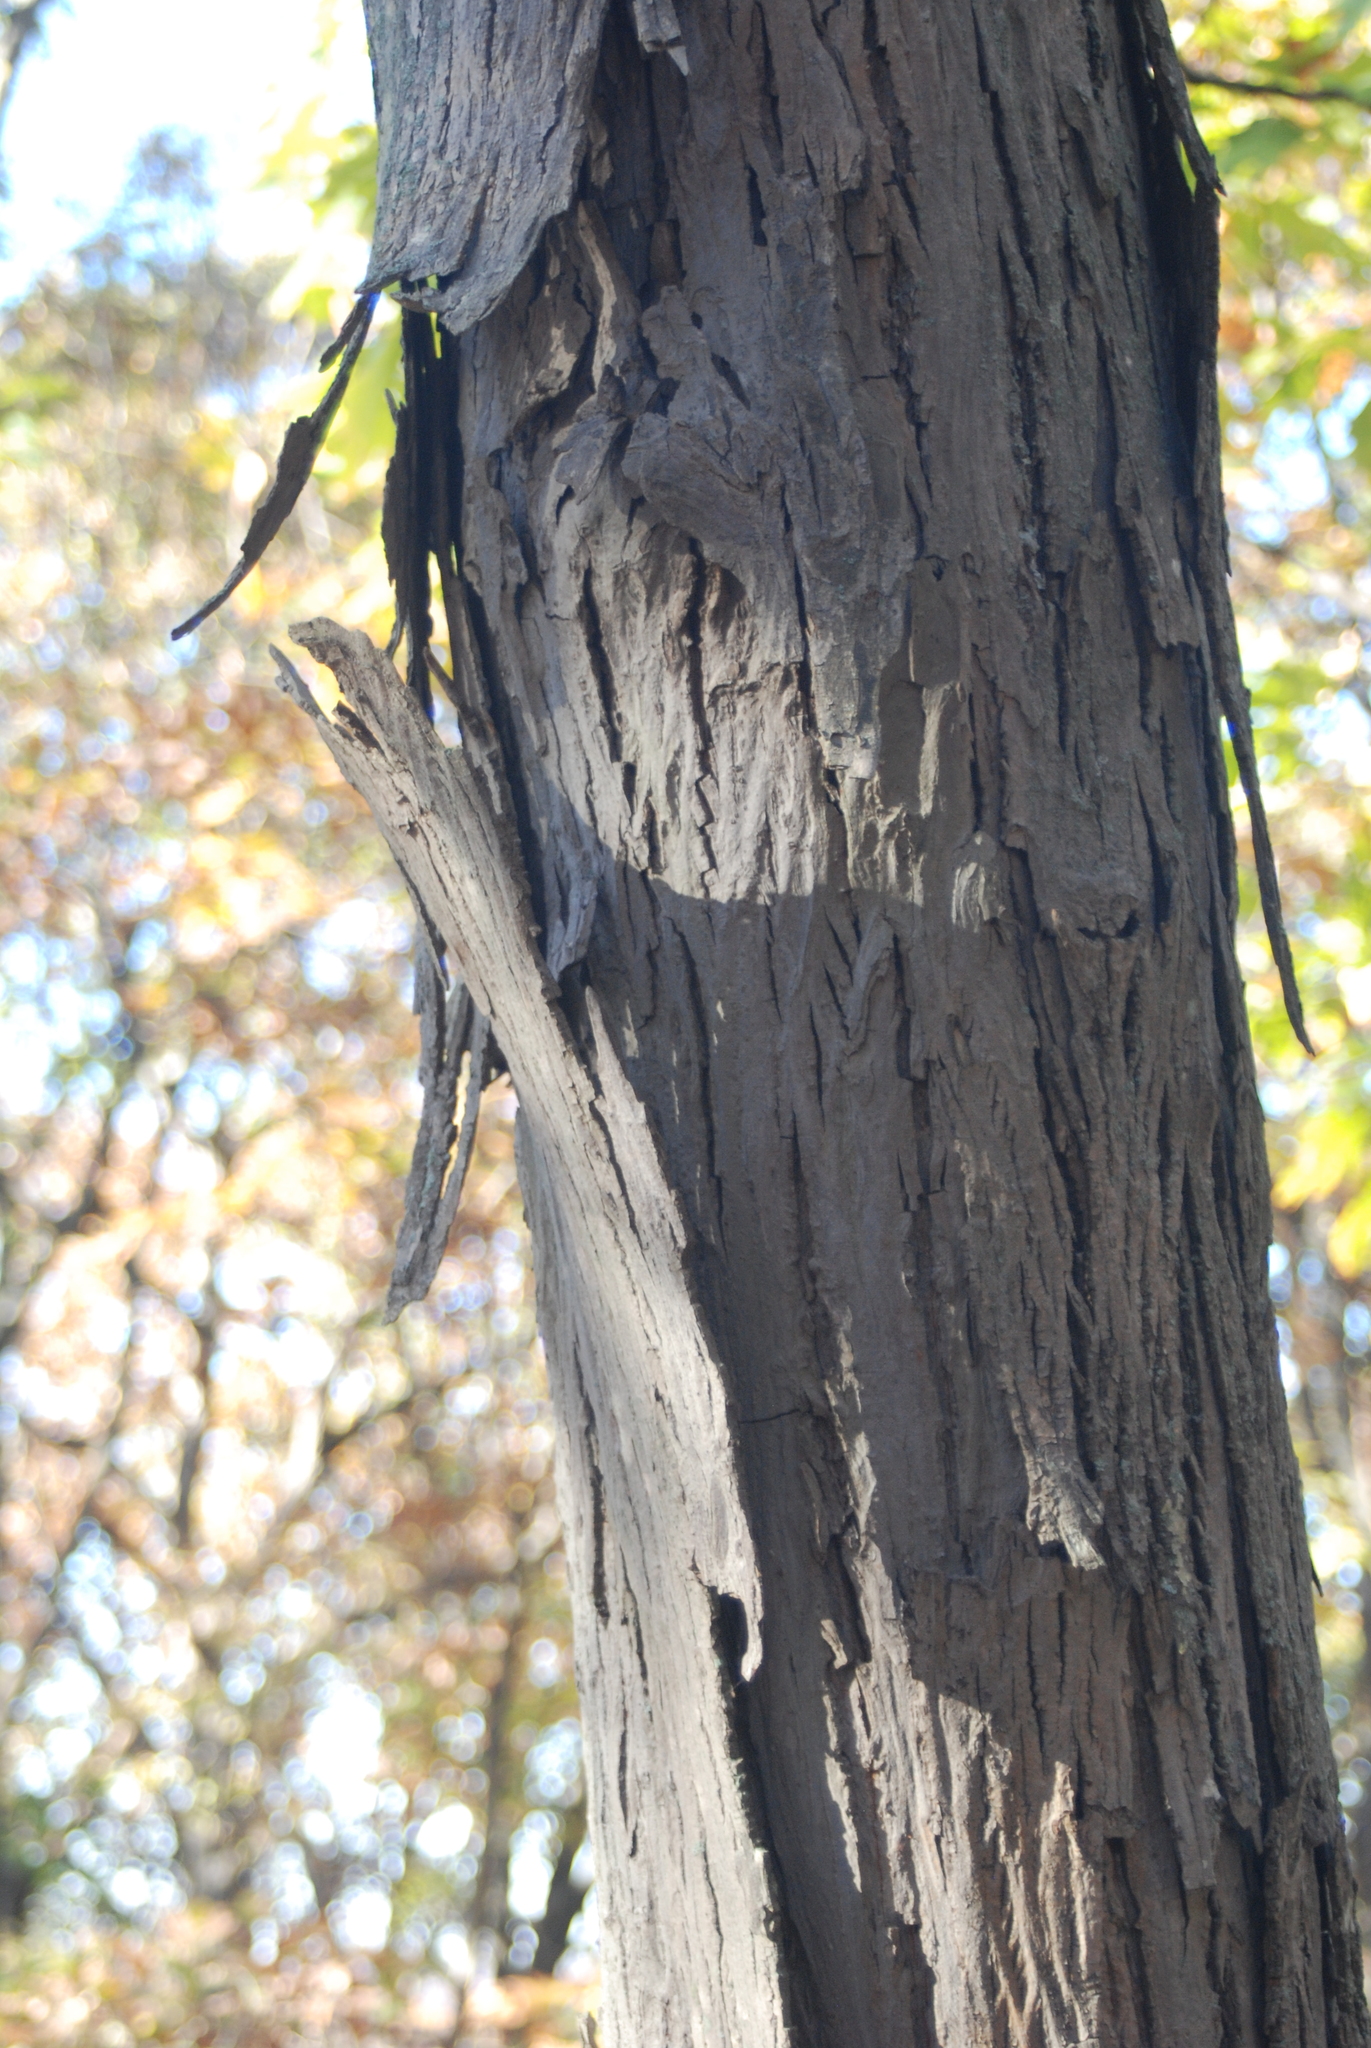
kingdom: Plantae
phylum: Tracheophyta
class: Magnoliopsida
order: Fagales
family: Juglandaceae
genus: Carya
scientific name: Carya ovata
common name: Shagbark hickory
